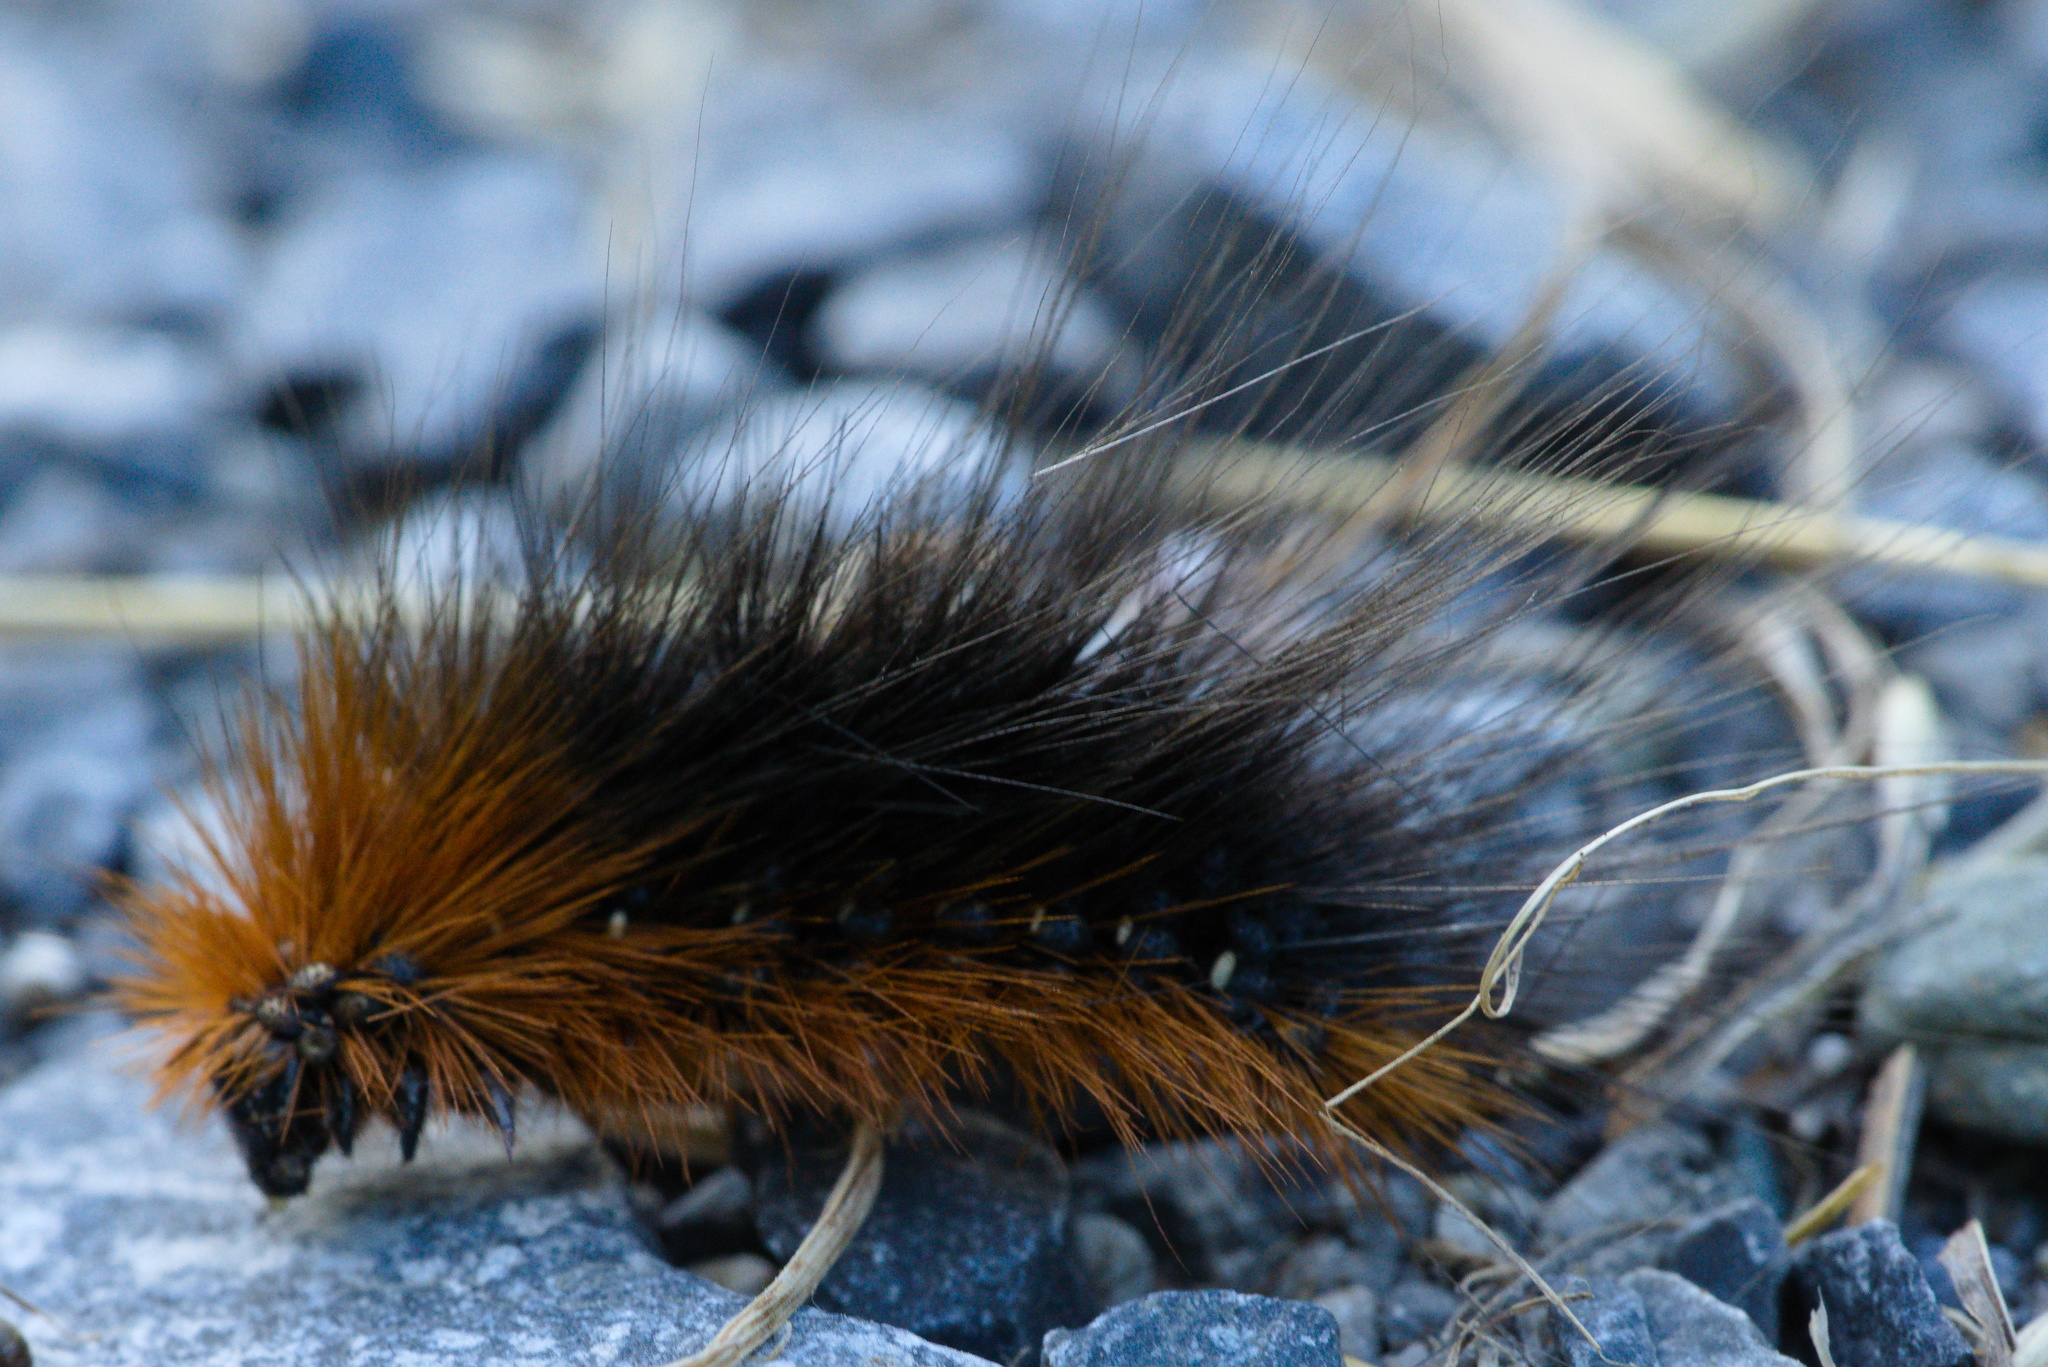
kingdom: Animalia
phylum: Arthropoda
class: Insecta
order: Lepidoptera
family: Erebidae
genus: Arctia
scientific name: Arctia caja
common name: Garden tiger
